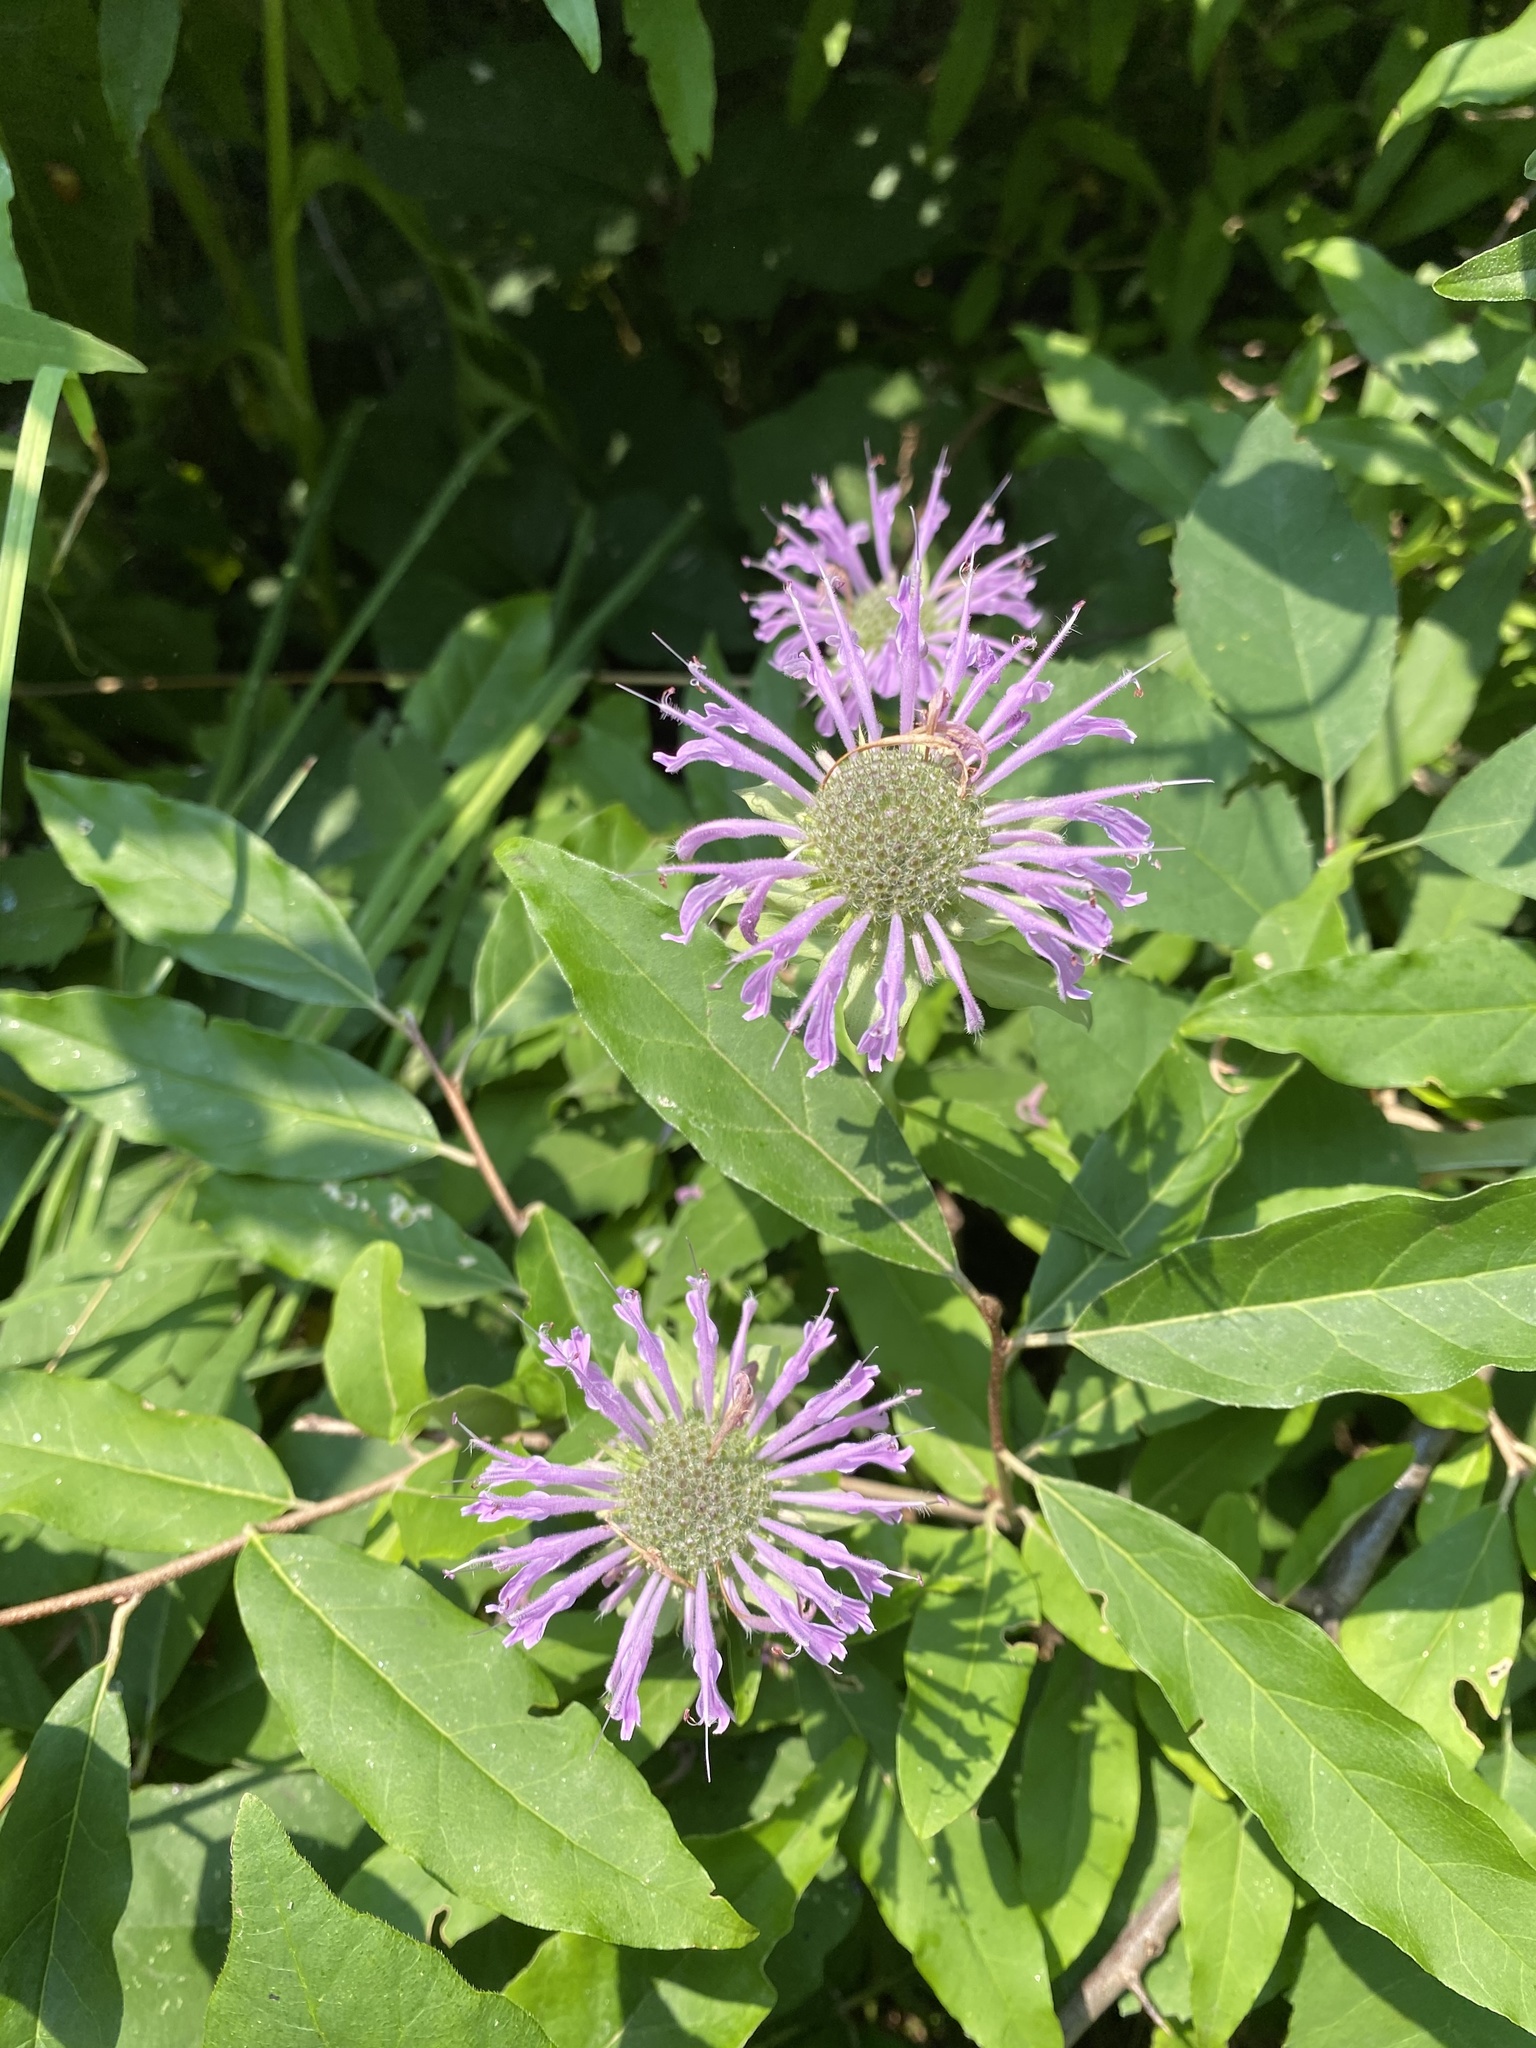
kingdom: Plantae
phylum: Tracheophyta
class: Magnoliopsida
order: Lamiales
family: Lamiaceae
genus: Monarda
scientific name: Monarda fistulosa
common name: Purple beebalm
